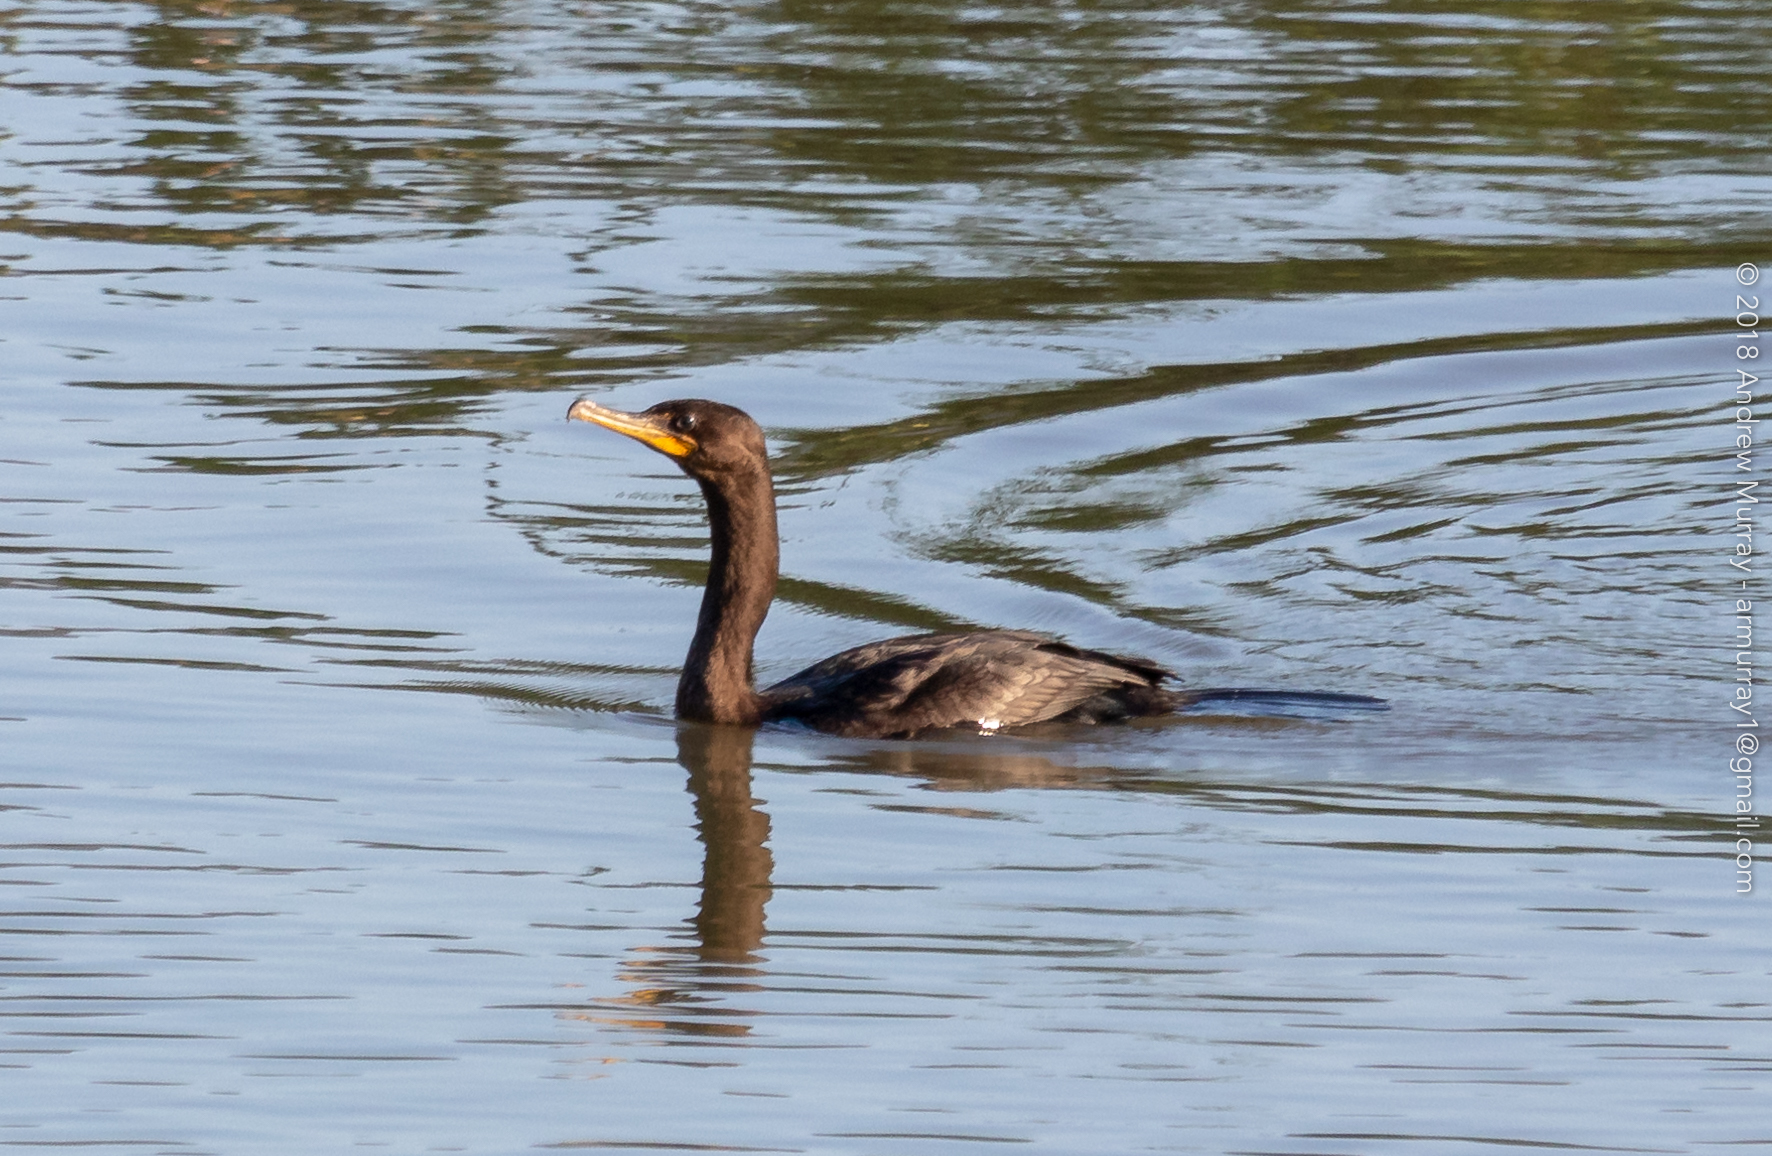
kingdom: Animalia
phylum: Chordata
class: Aves
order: Suliformes
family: Phalacrocoracidae
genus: Phalacrocorax
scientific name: Phalacrocorax auritus
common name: Double-crested cormorant
